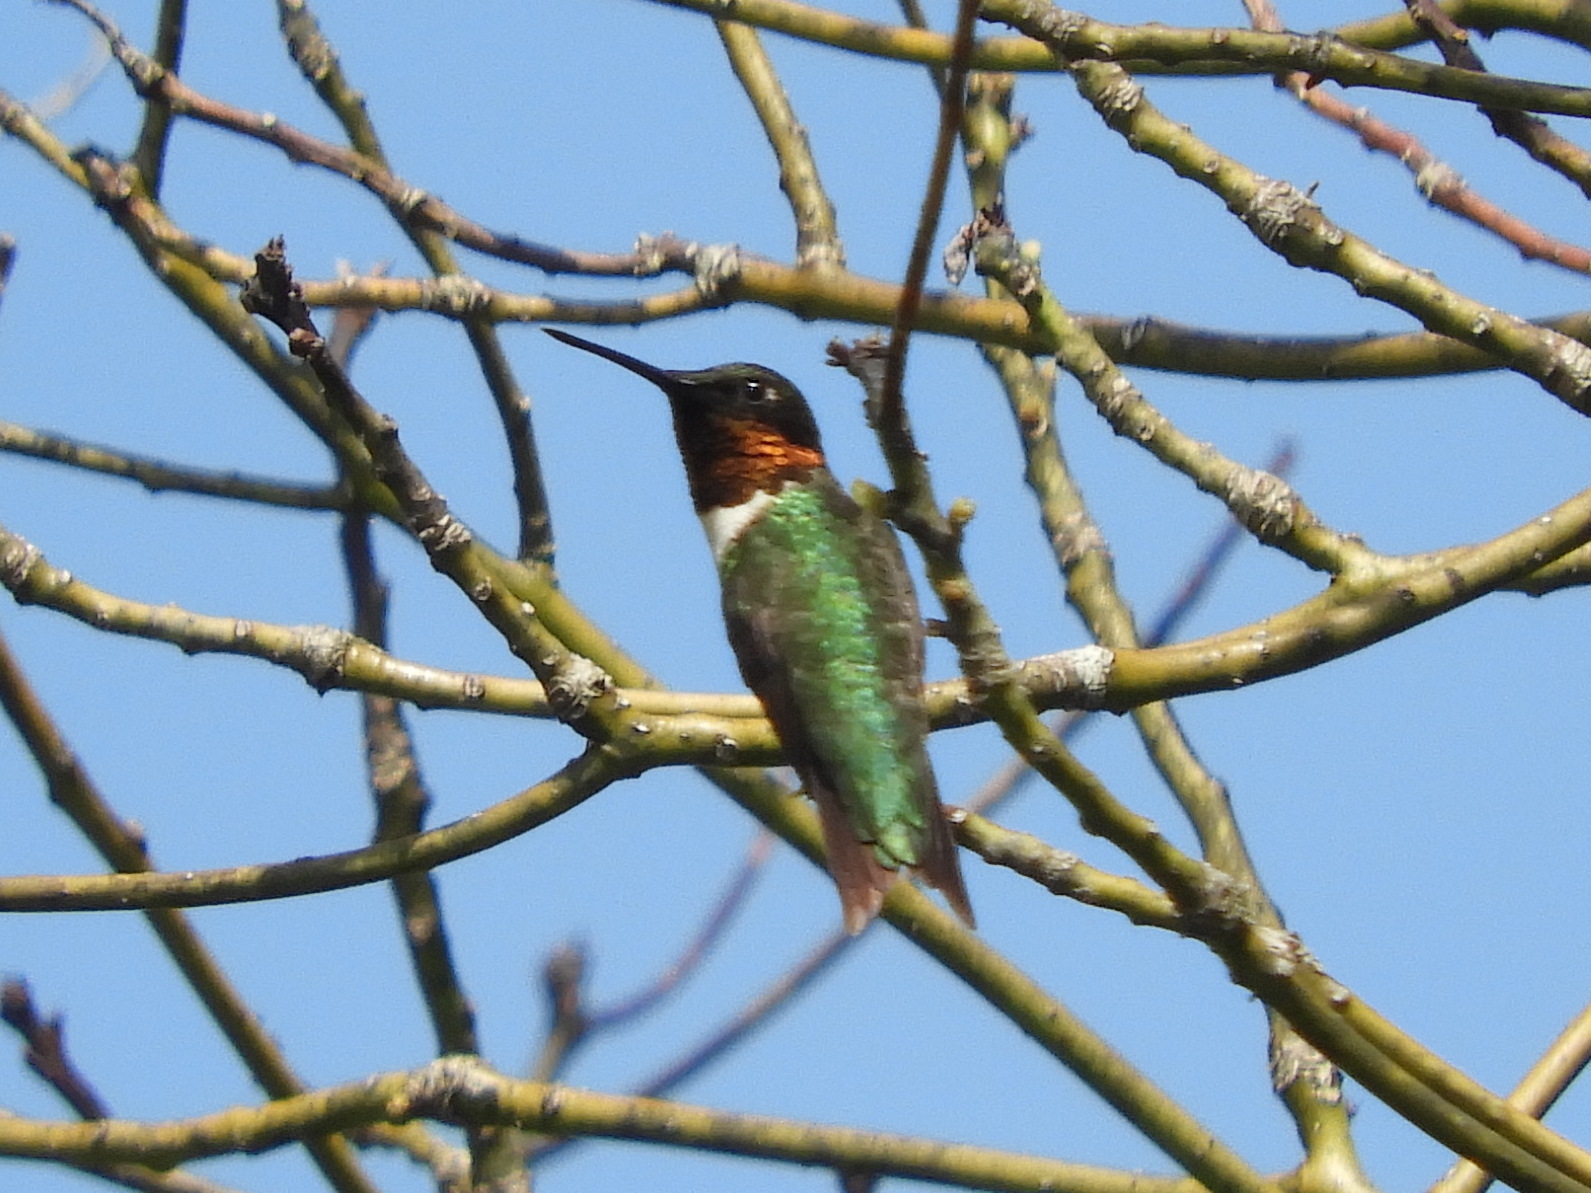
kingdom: Animalia
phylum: Chordata
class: Aves
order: Apodiformes
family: Trochilidae
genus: Archilochus
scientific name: Archilochus colubris
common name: Ruby-throated hummingbird
